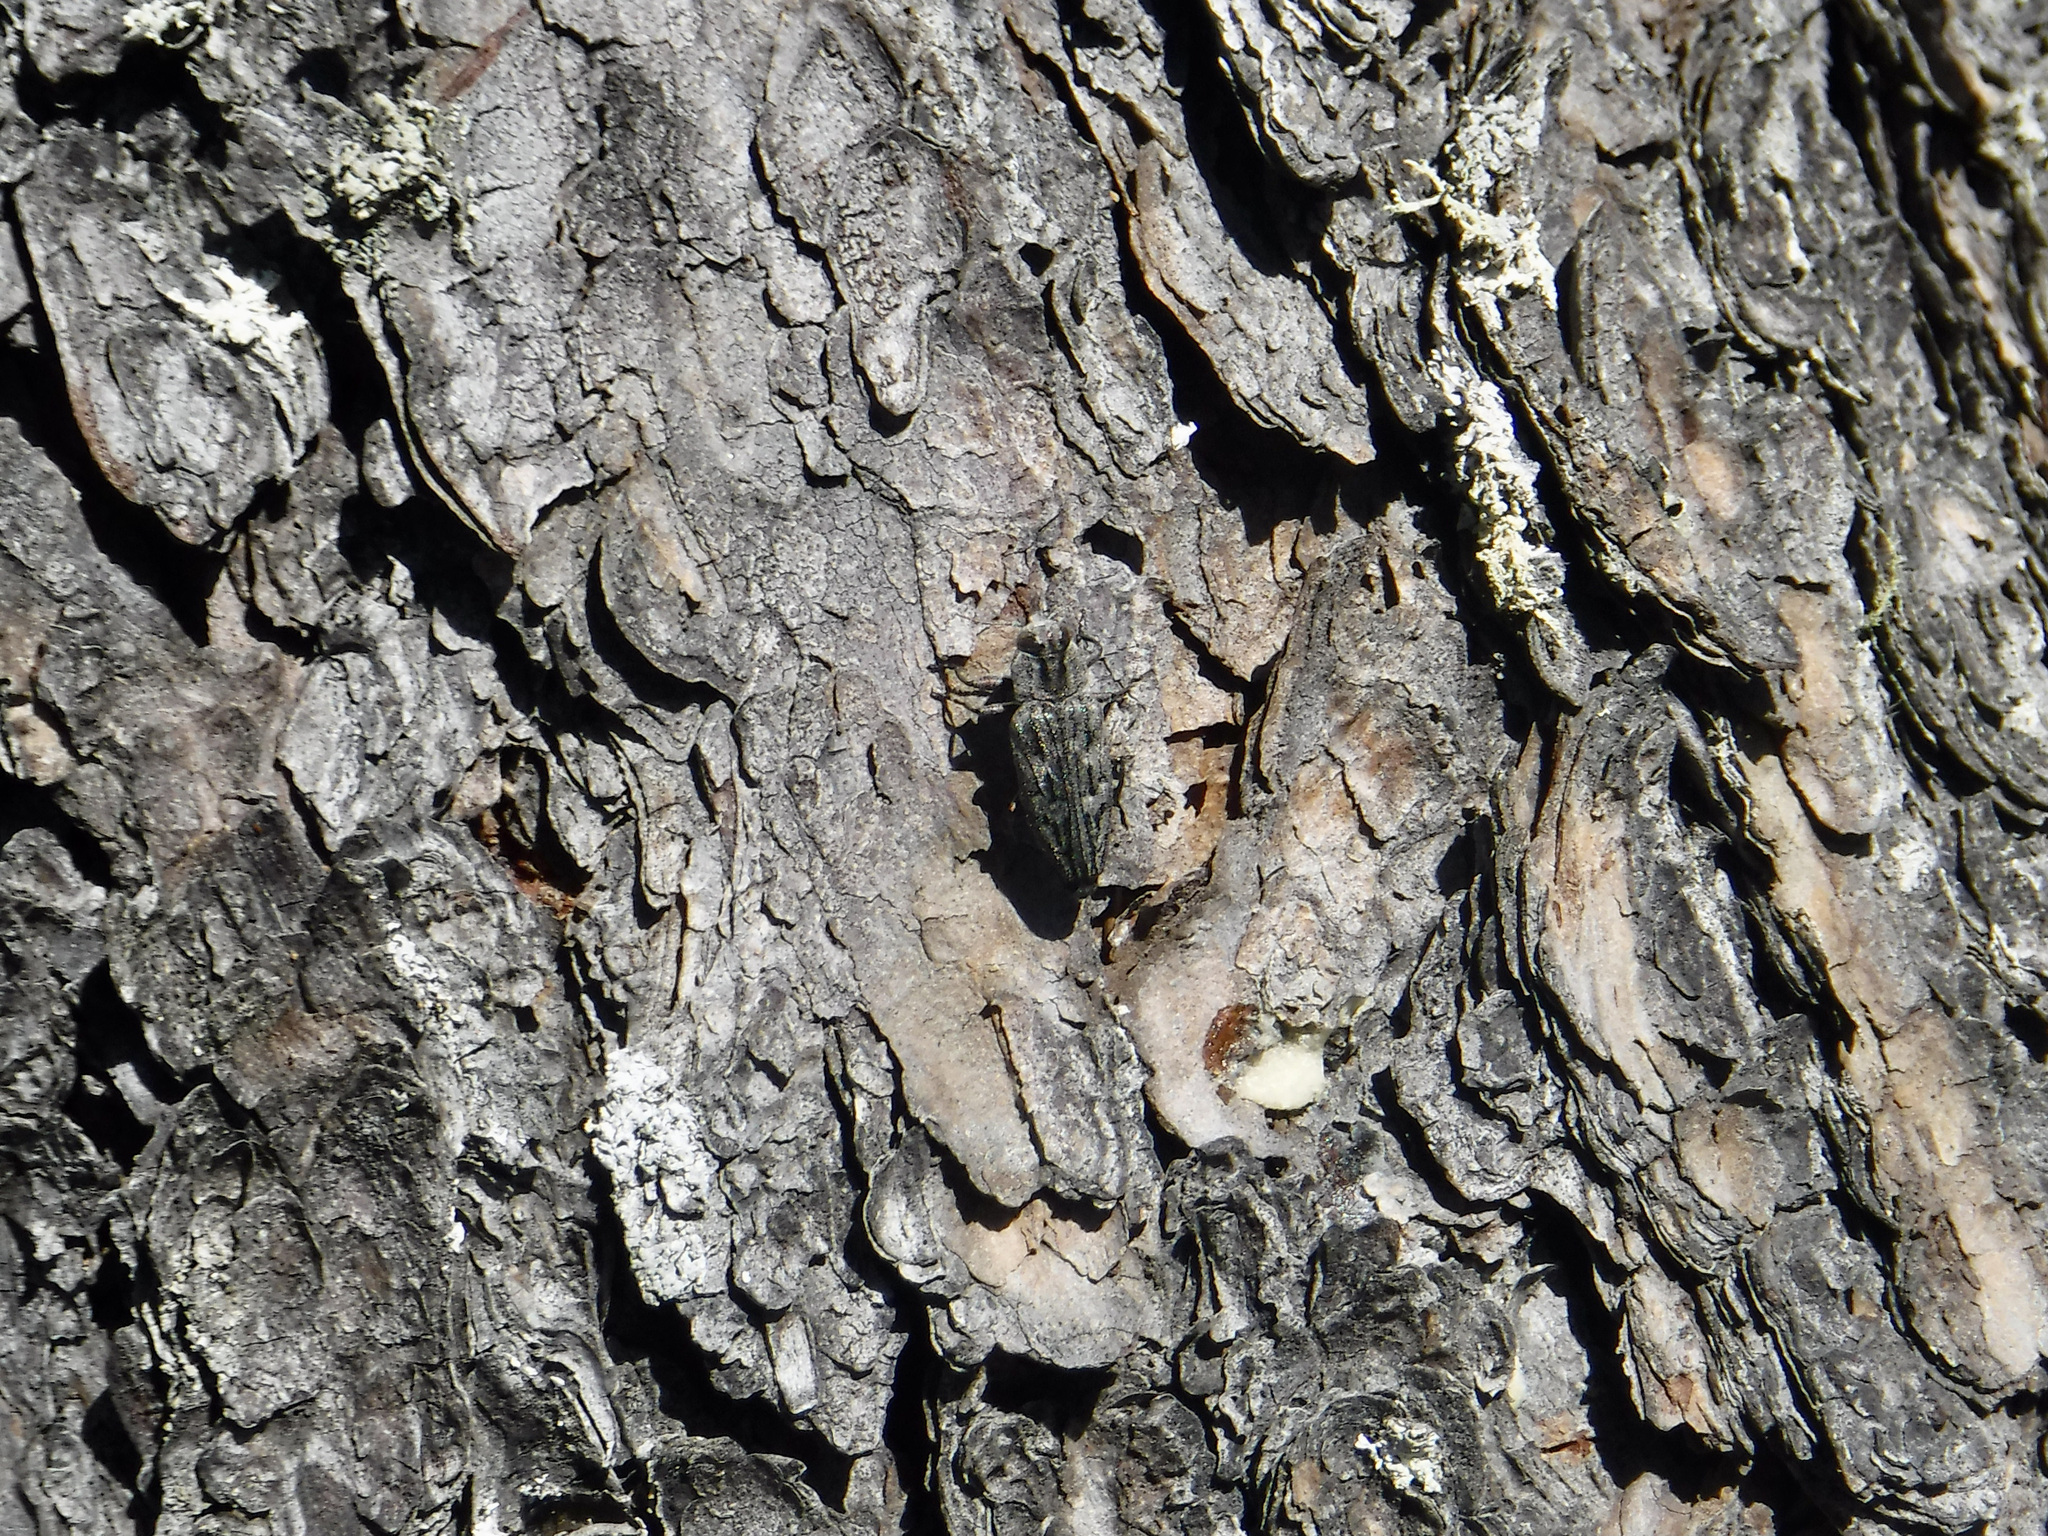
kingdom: Animalia
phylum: Arthropoda
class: Insecta
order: Coleoptera
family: Buprestidae
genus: Chrysobothris
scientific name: Chrysobothris dentipes
